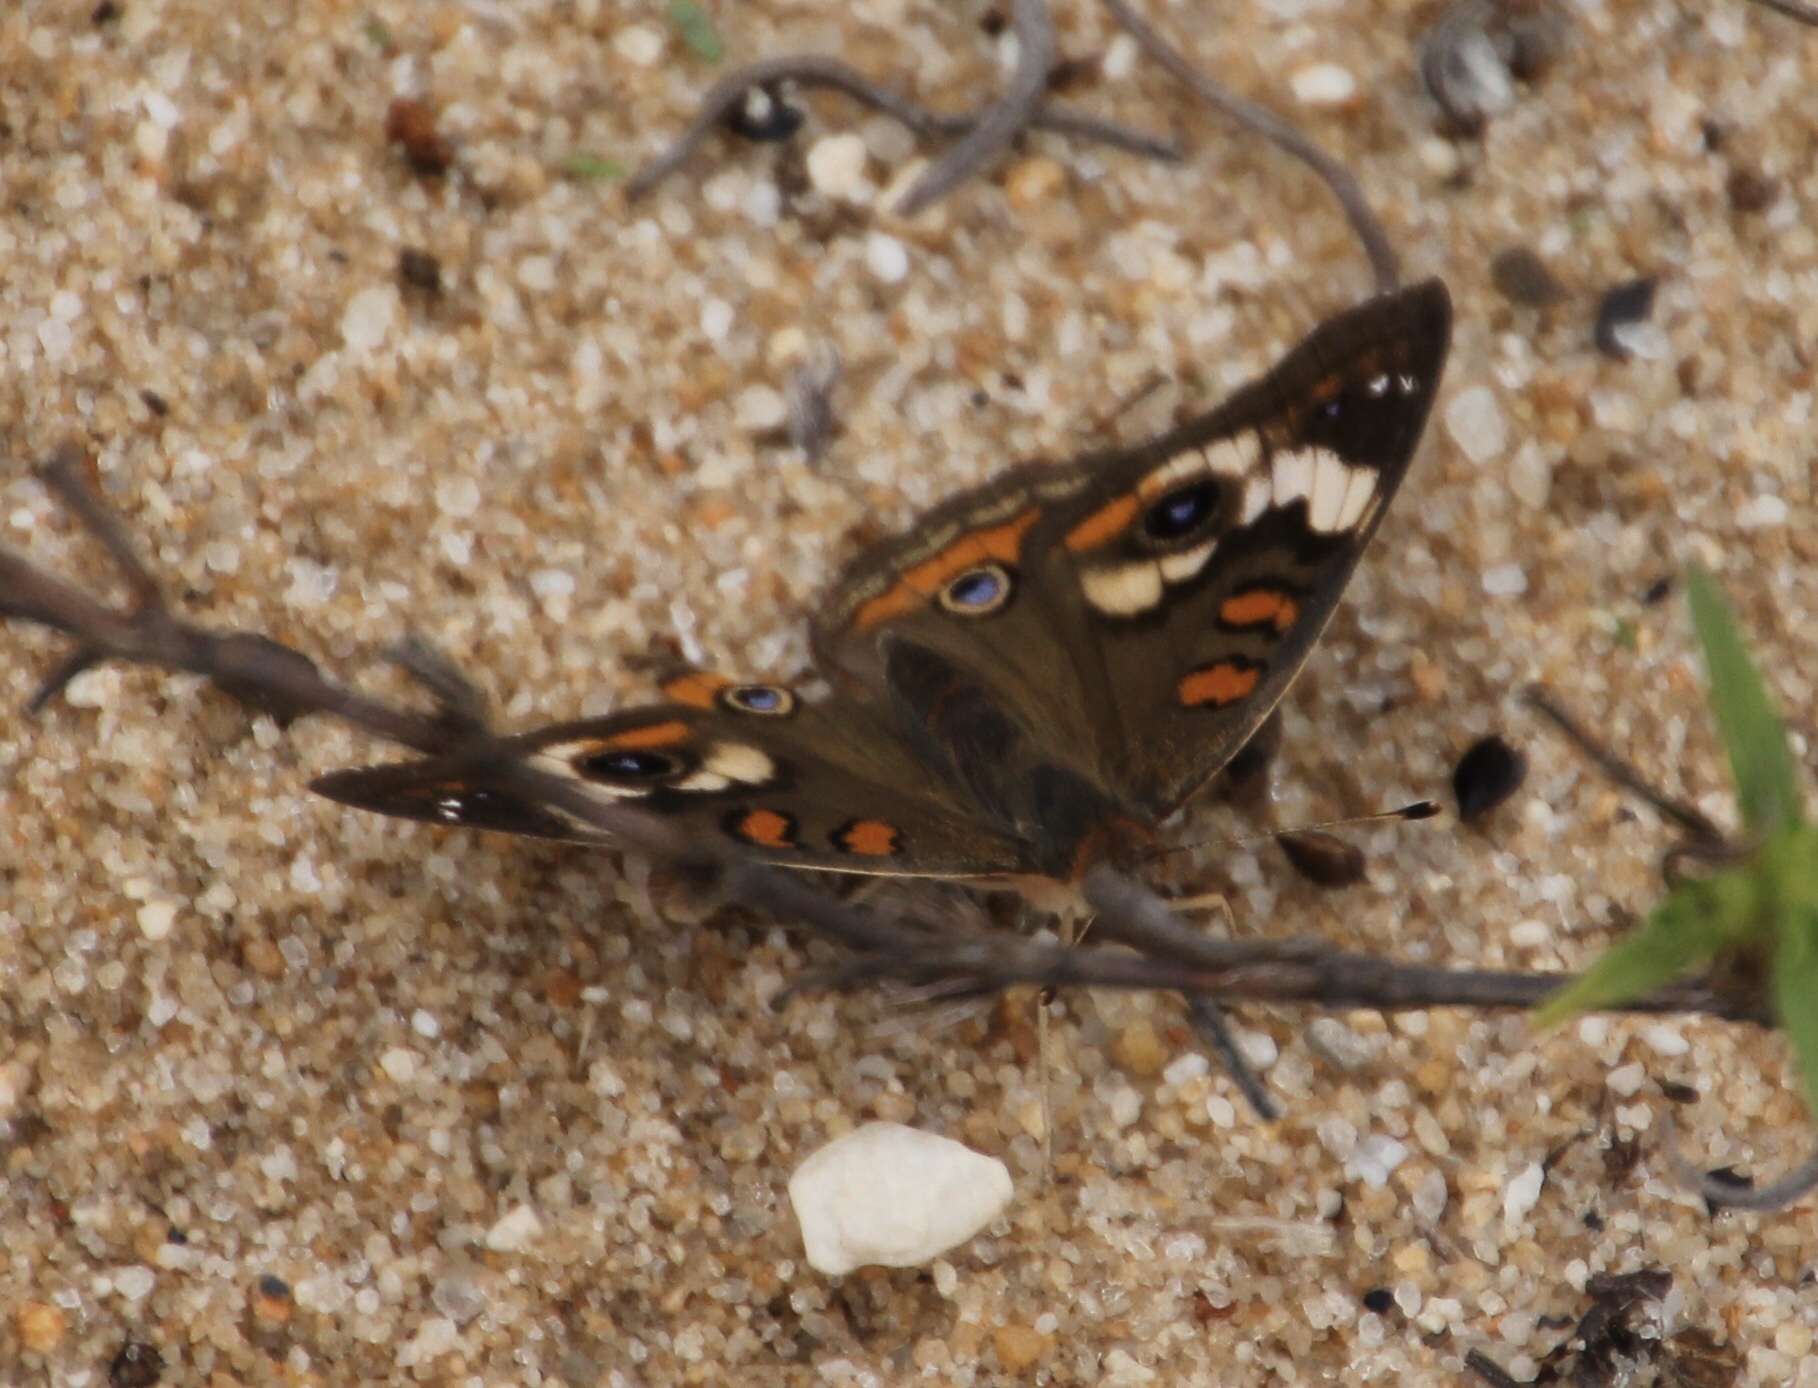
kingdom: Animalia
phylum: Arthropoda
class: Insecta
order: Lepidoptera
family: Nymphalidae
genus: Junonia
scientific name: Junonia coenia
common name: Common buckeye
